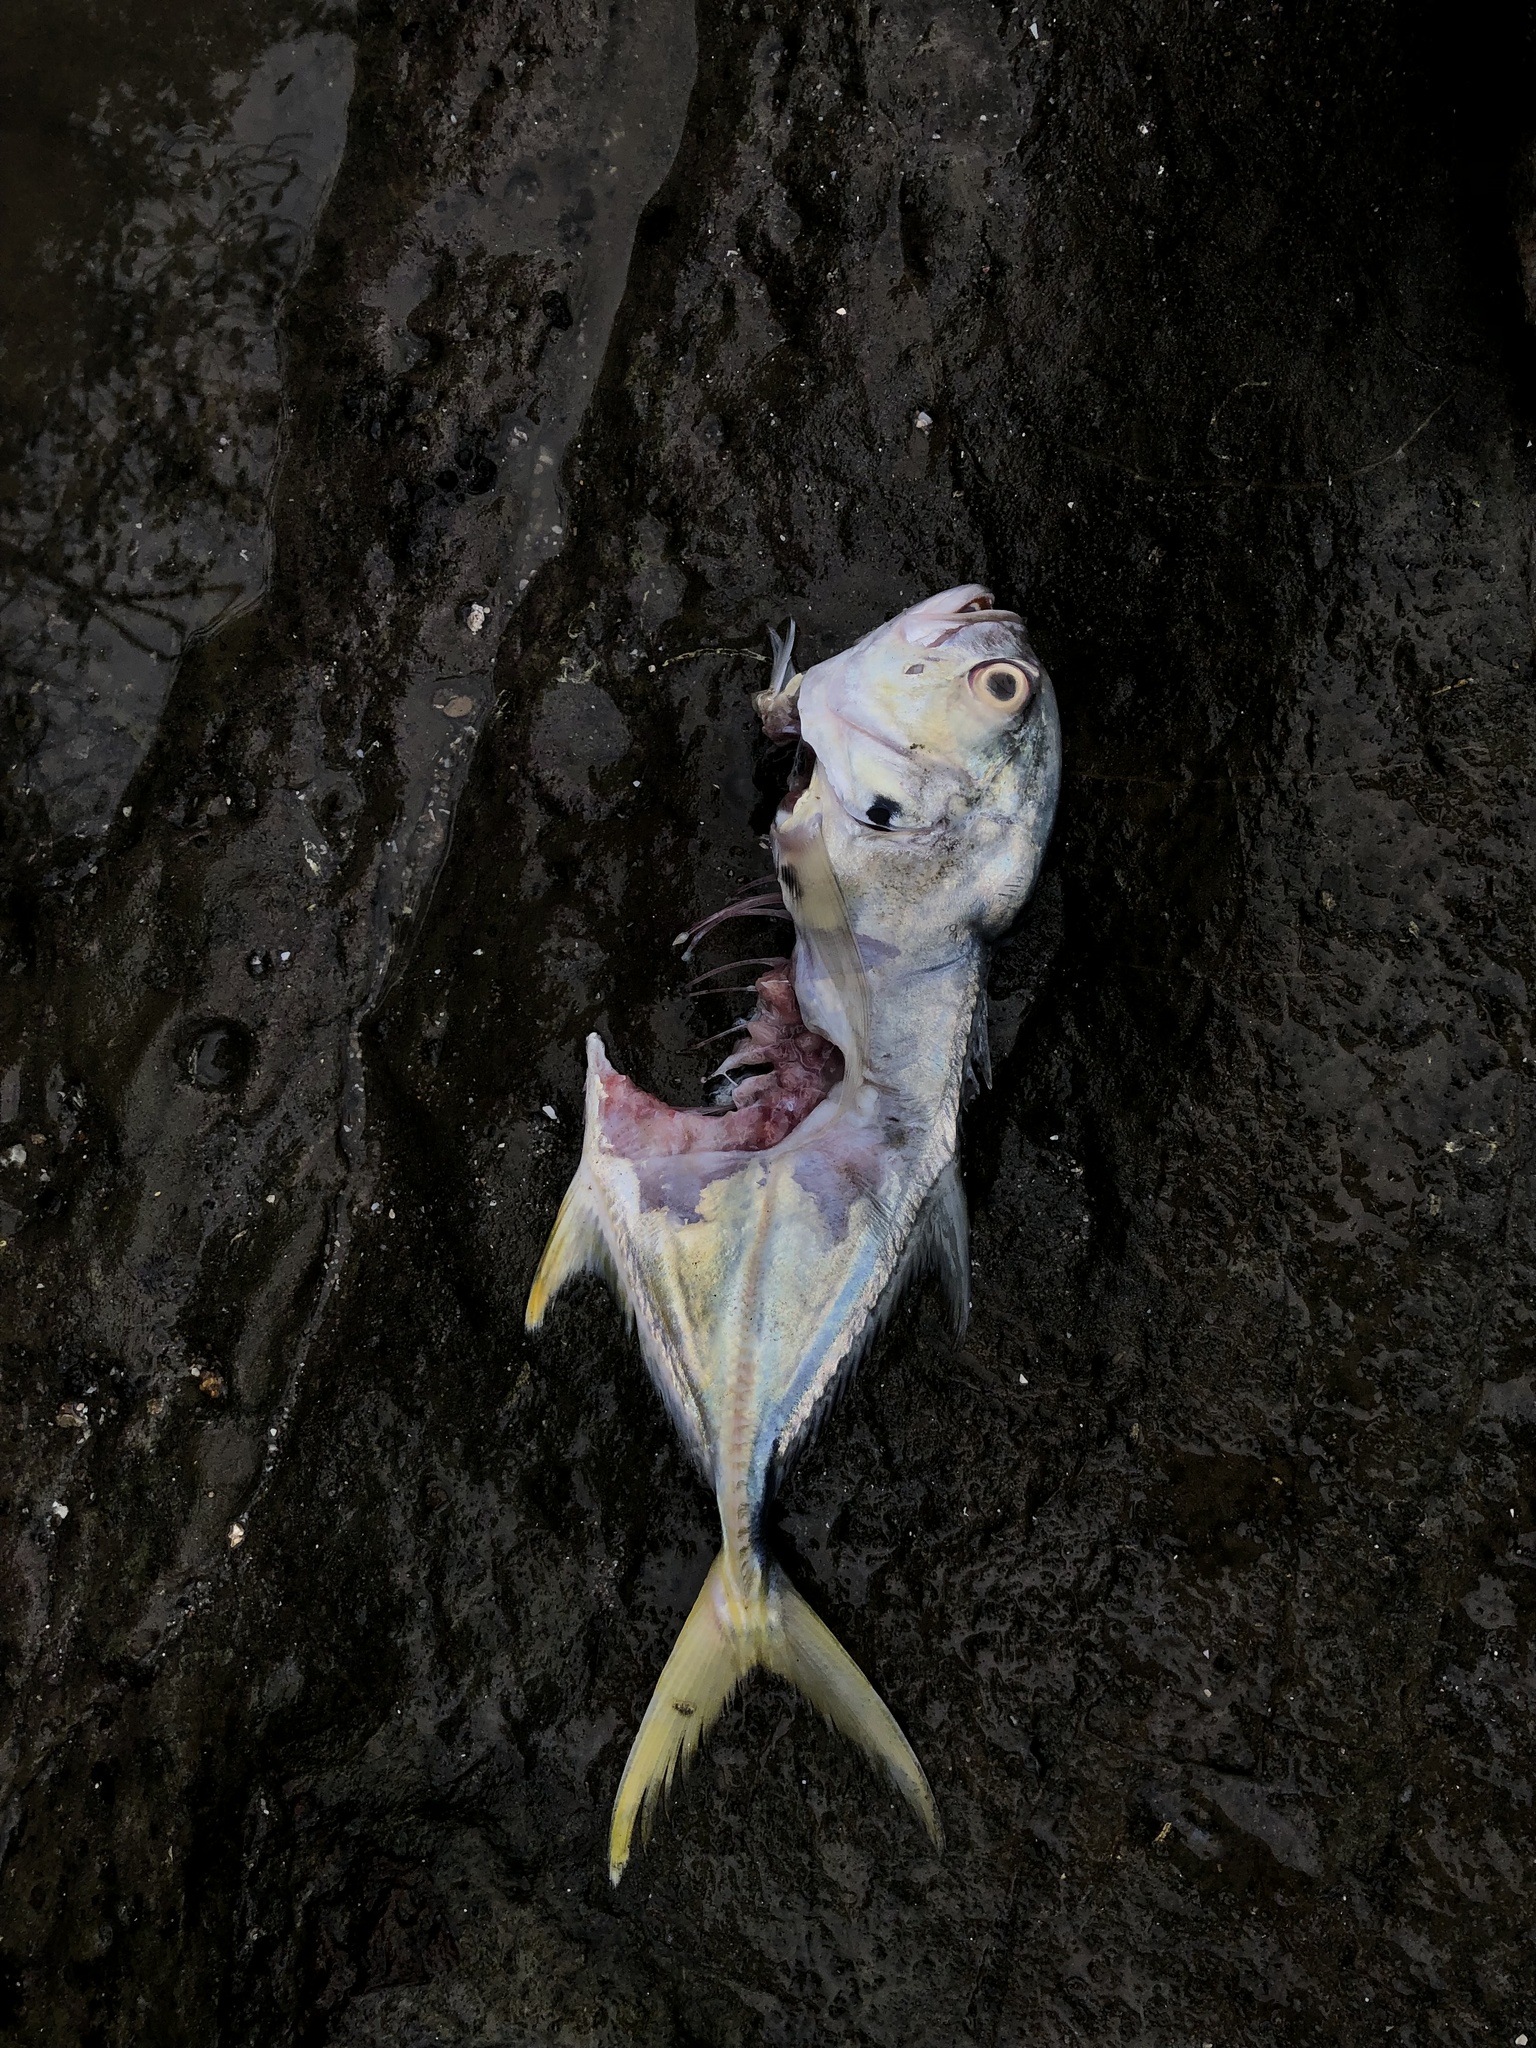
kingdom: Animalia
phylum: Chordata
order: Perciformes
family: Carangidae
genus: Caranx
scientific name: Caranx caninus
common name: Pacific crevalle jack
